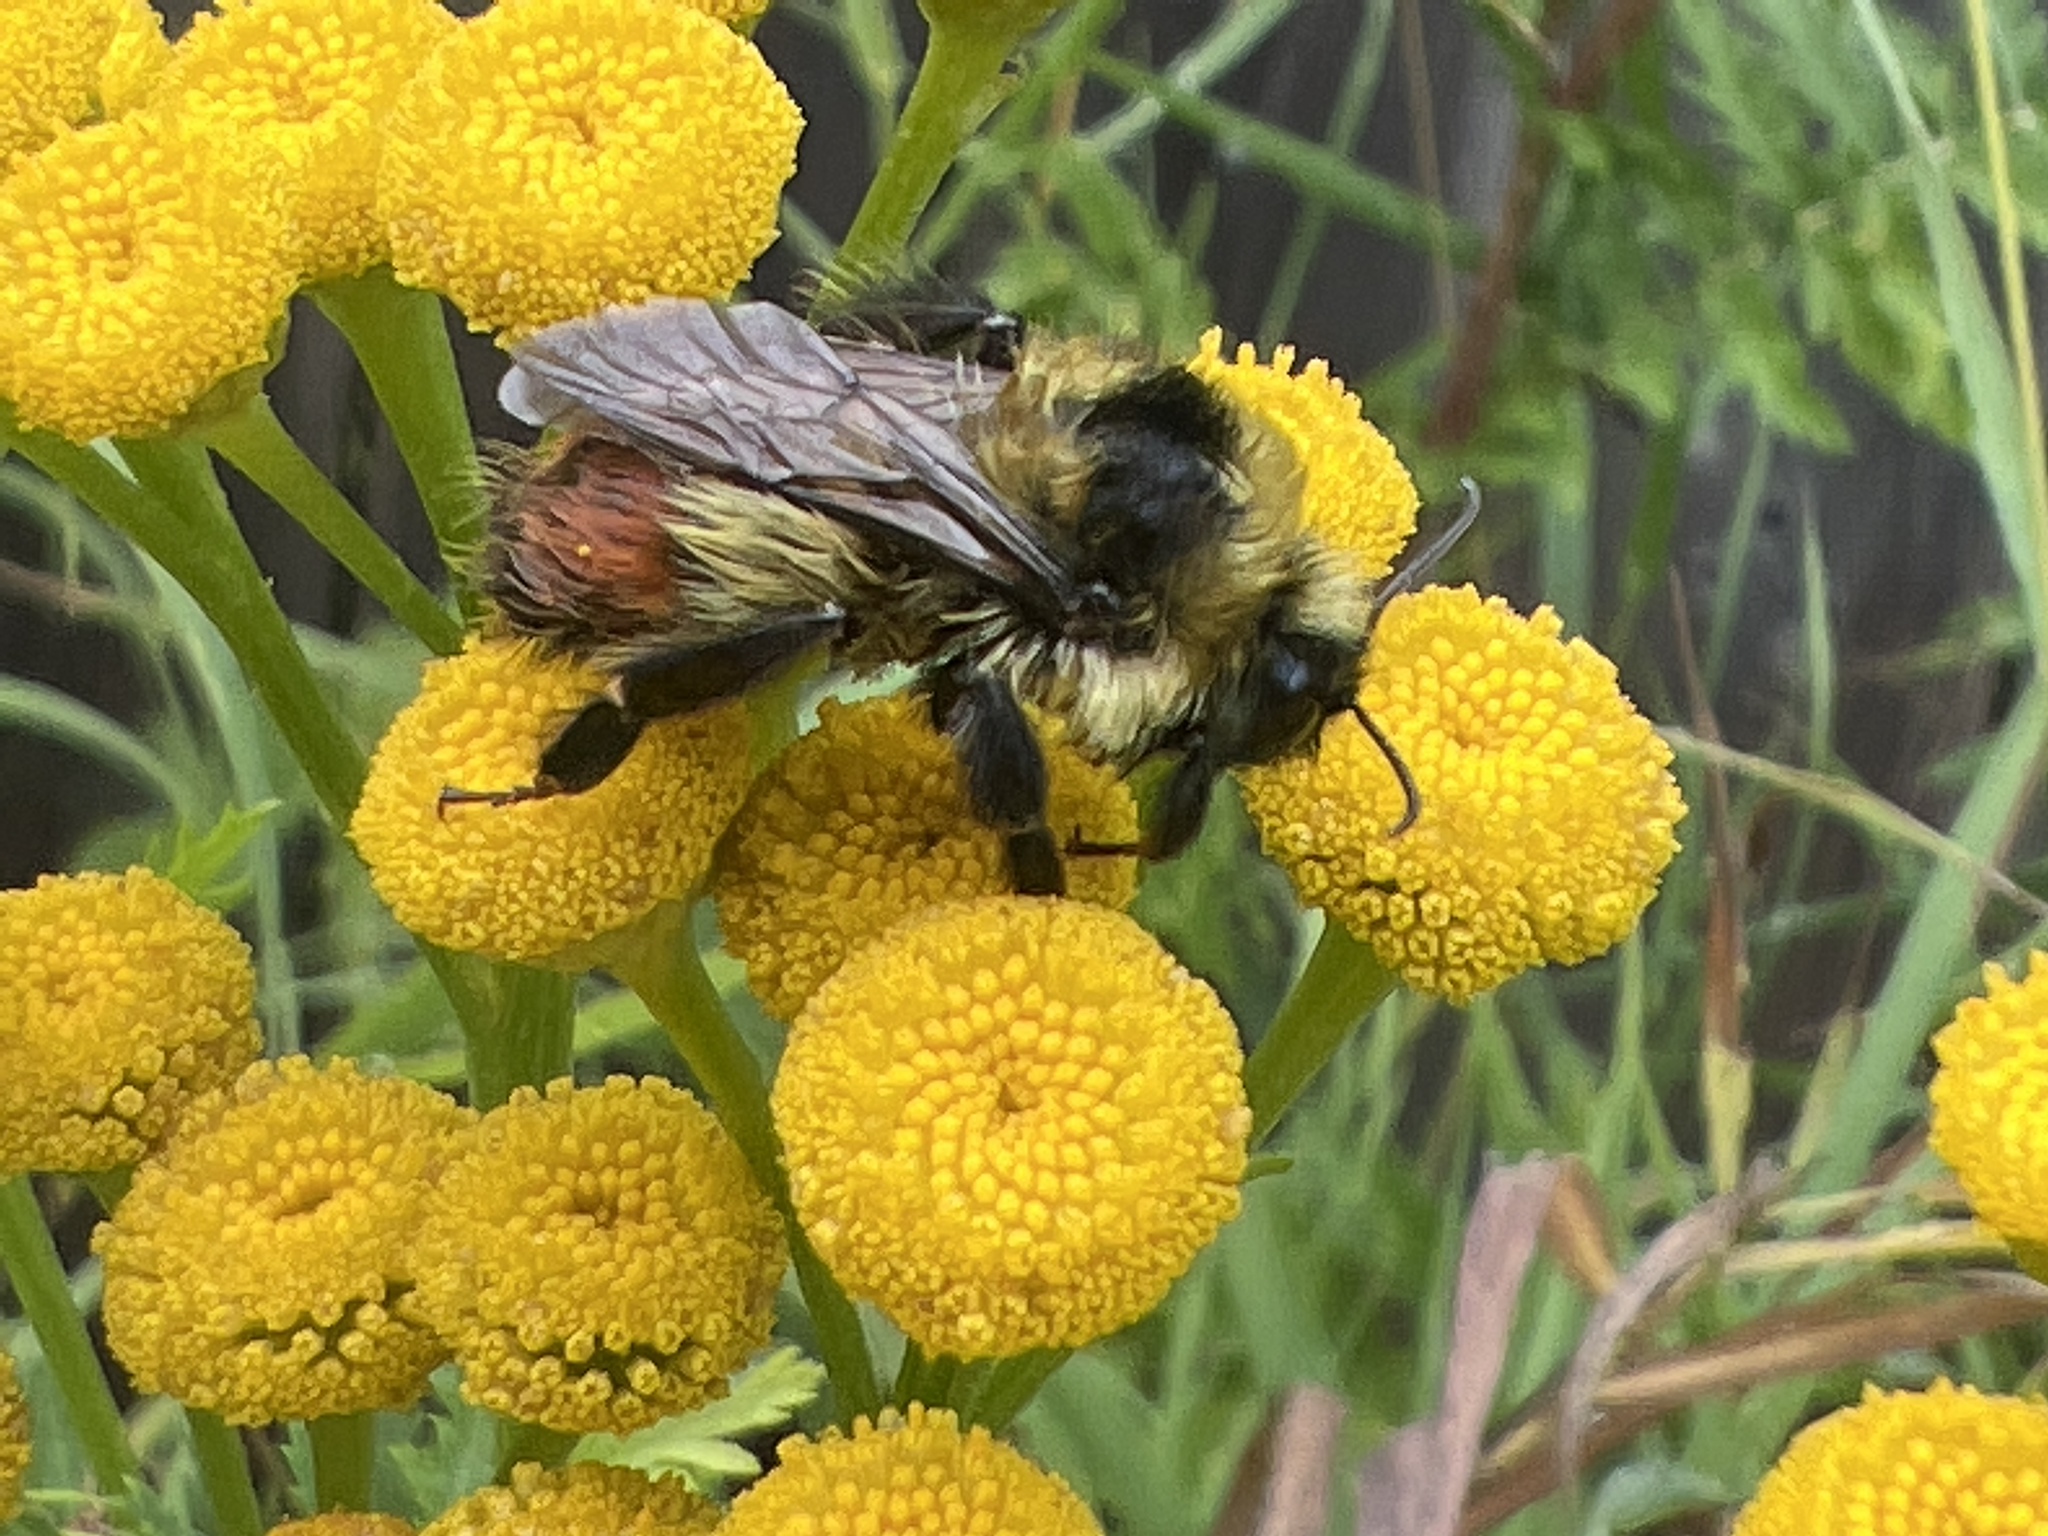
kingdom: Animalia
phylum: Arthropoda
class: Insecta
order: Hymenoptera
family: Apidae
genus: Bombus
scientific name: Bombus rufocinctus
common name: Red-belted bumble bee
